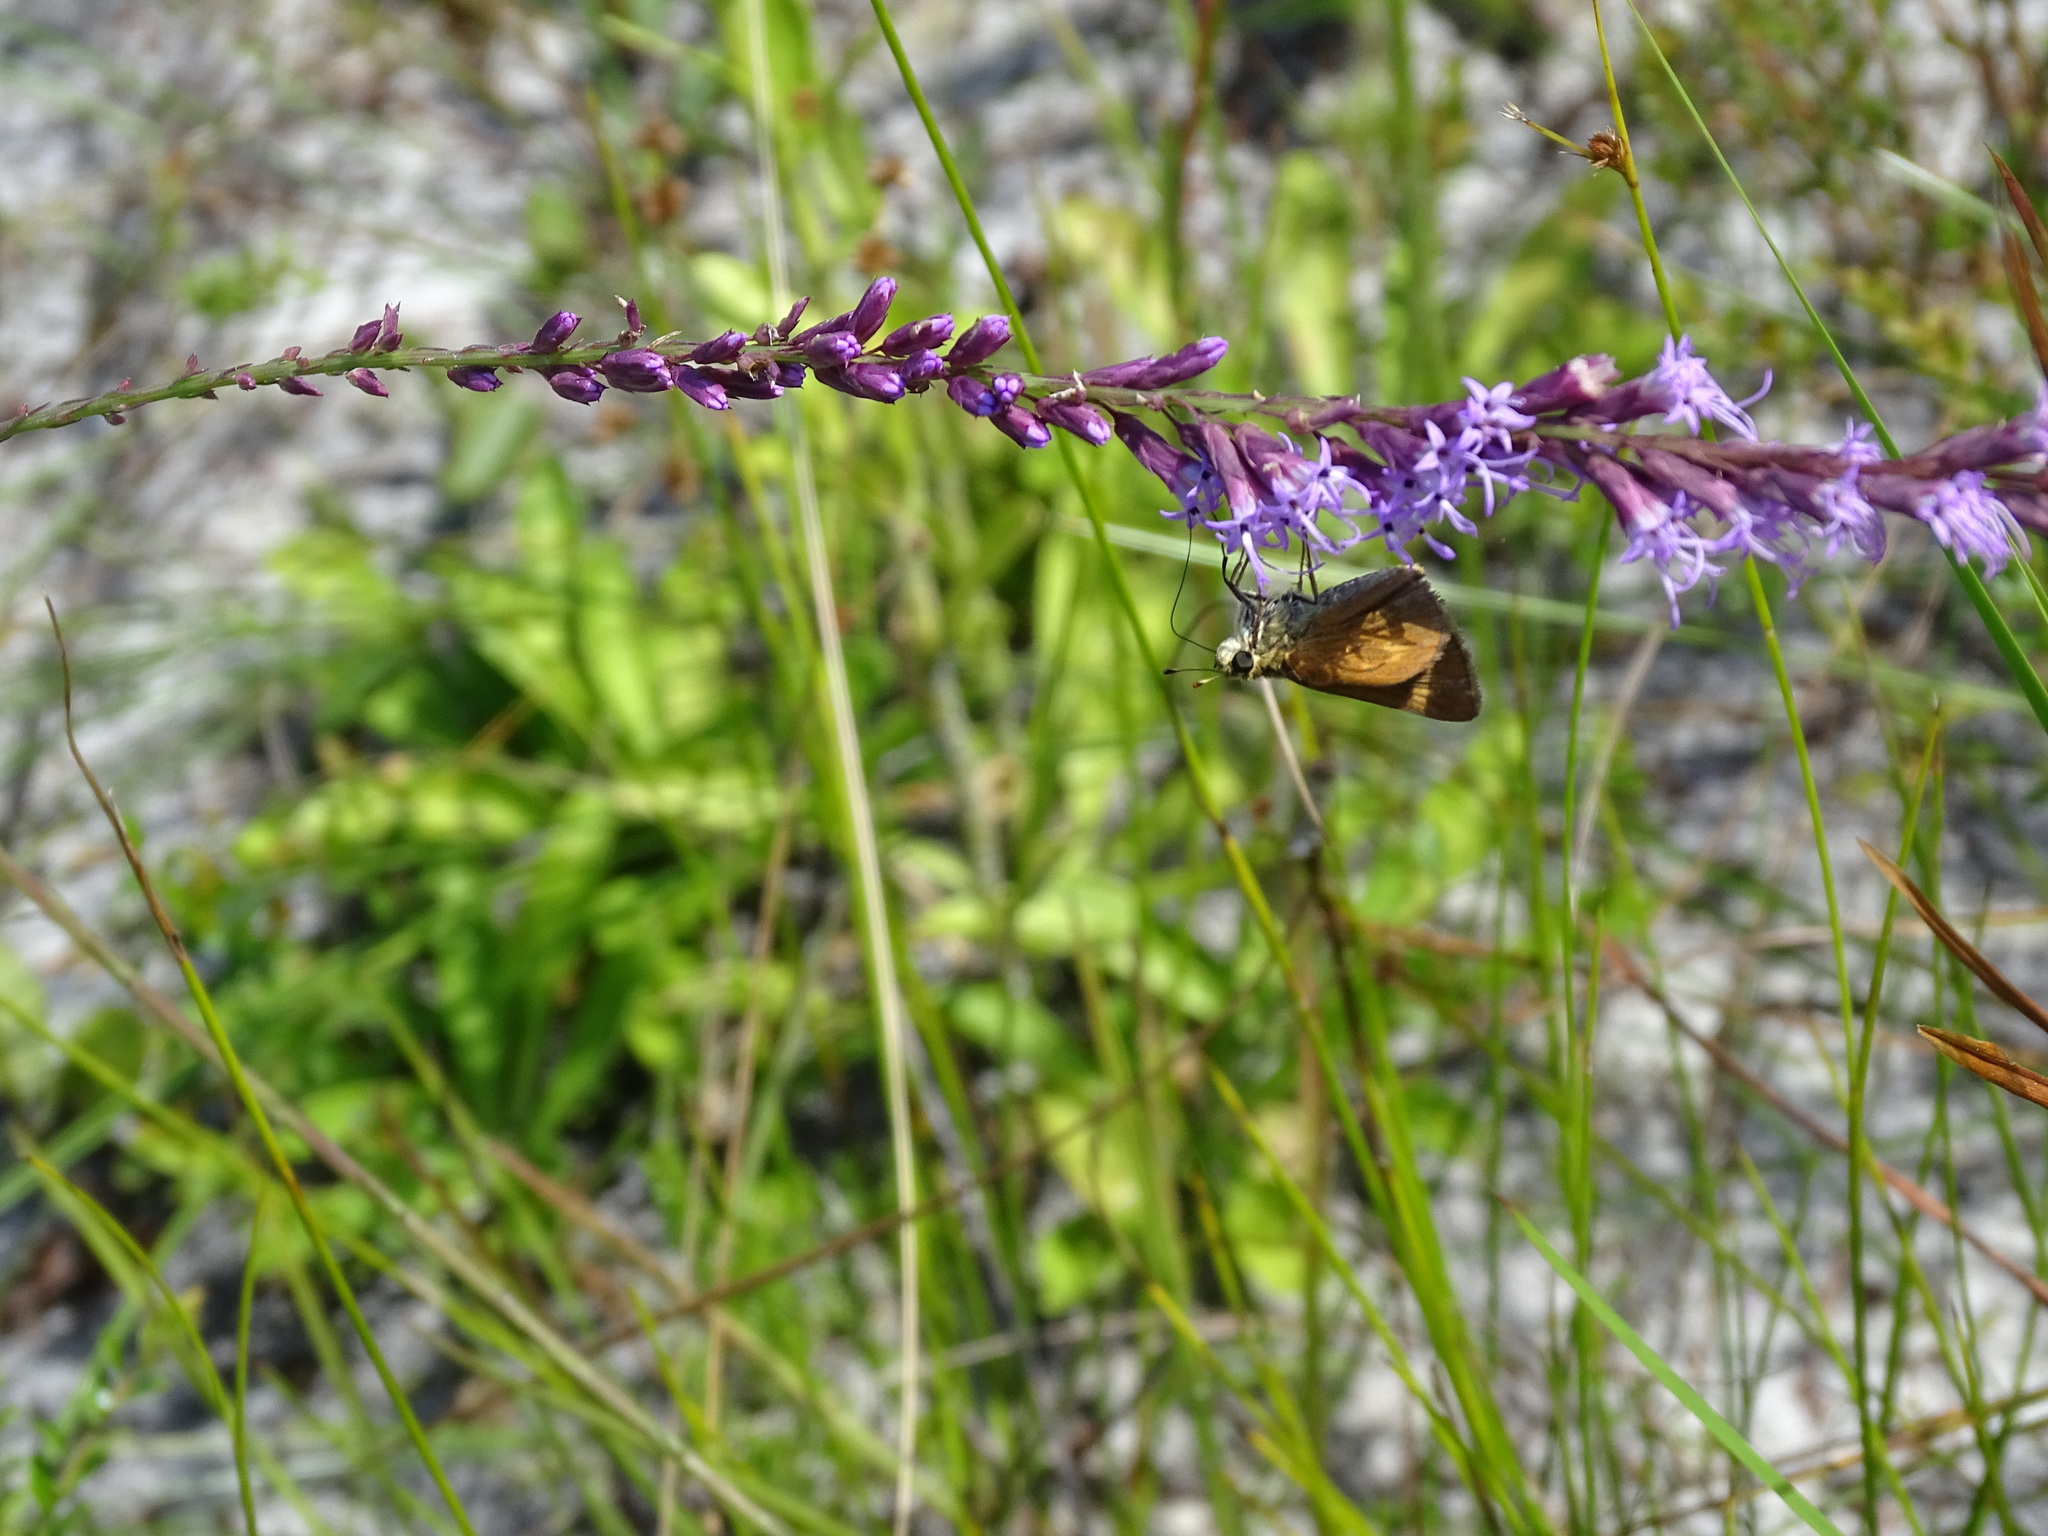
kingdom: Animalia
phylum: Arthropoda
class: Insecta
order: Lepidoptera
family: Hesperiidae
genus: Polites
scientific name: Polites otho
